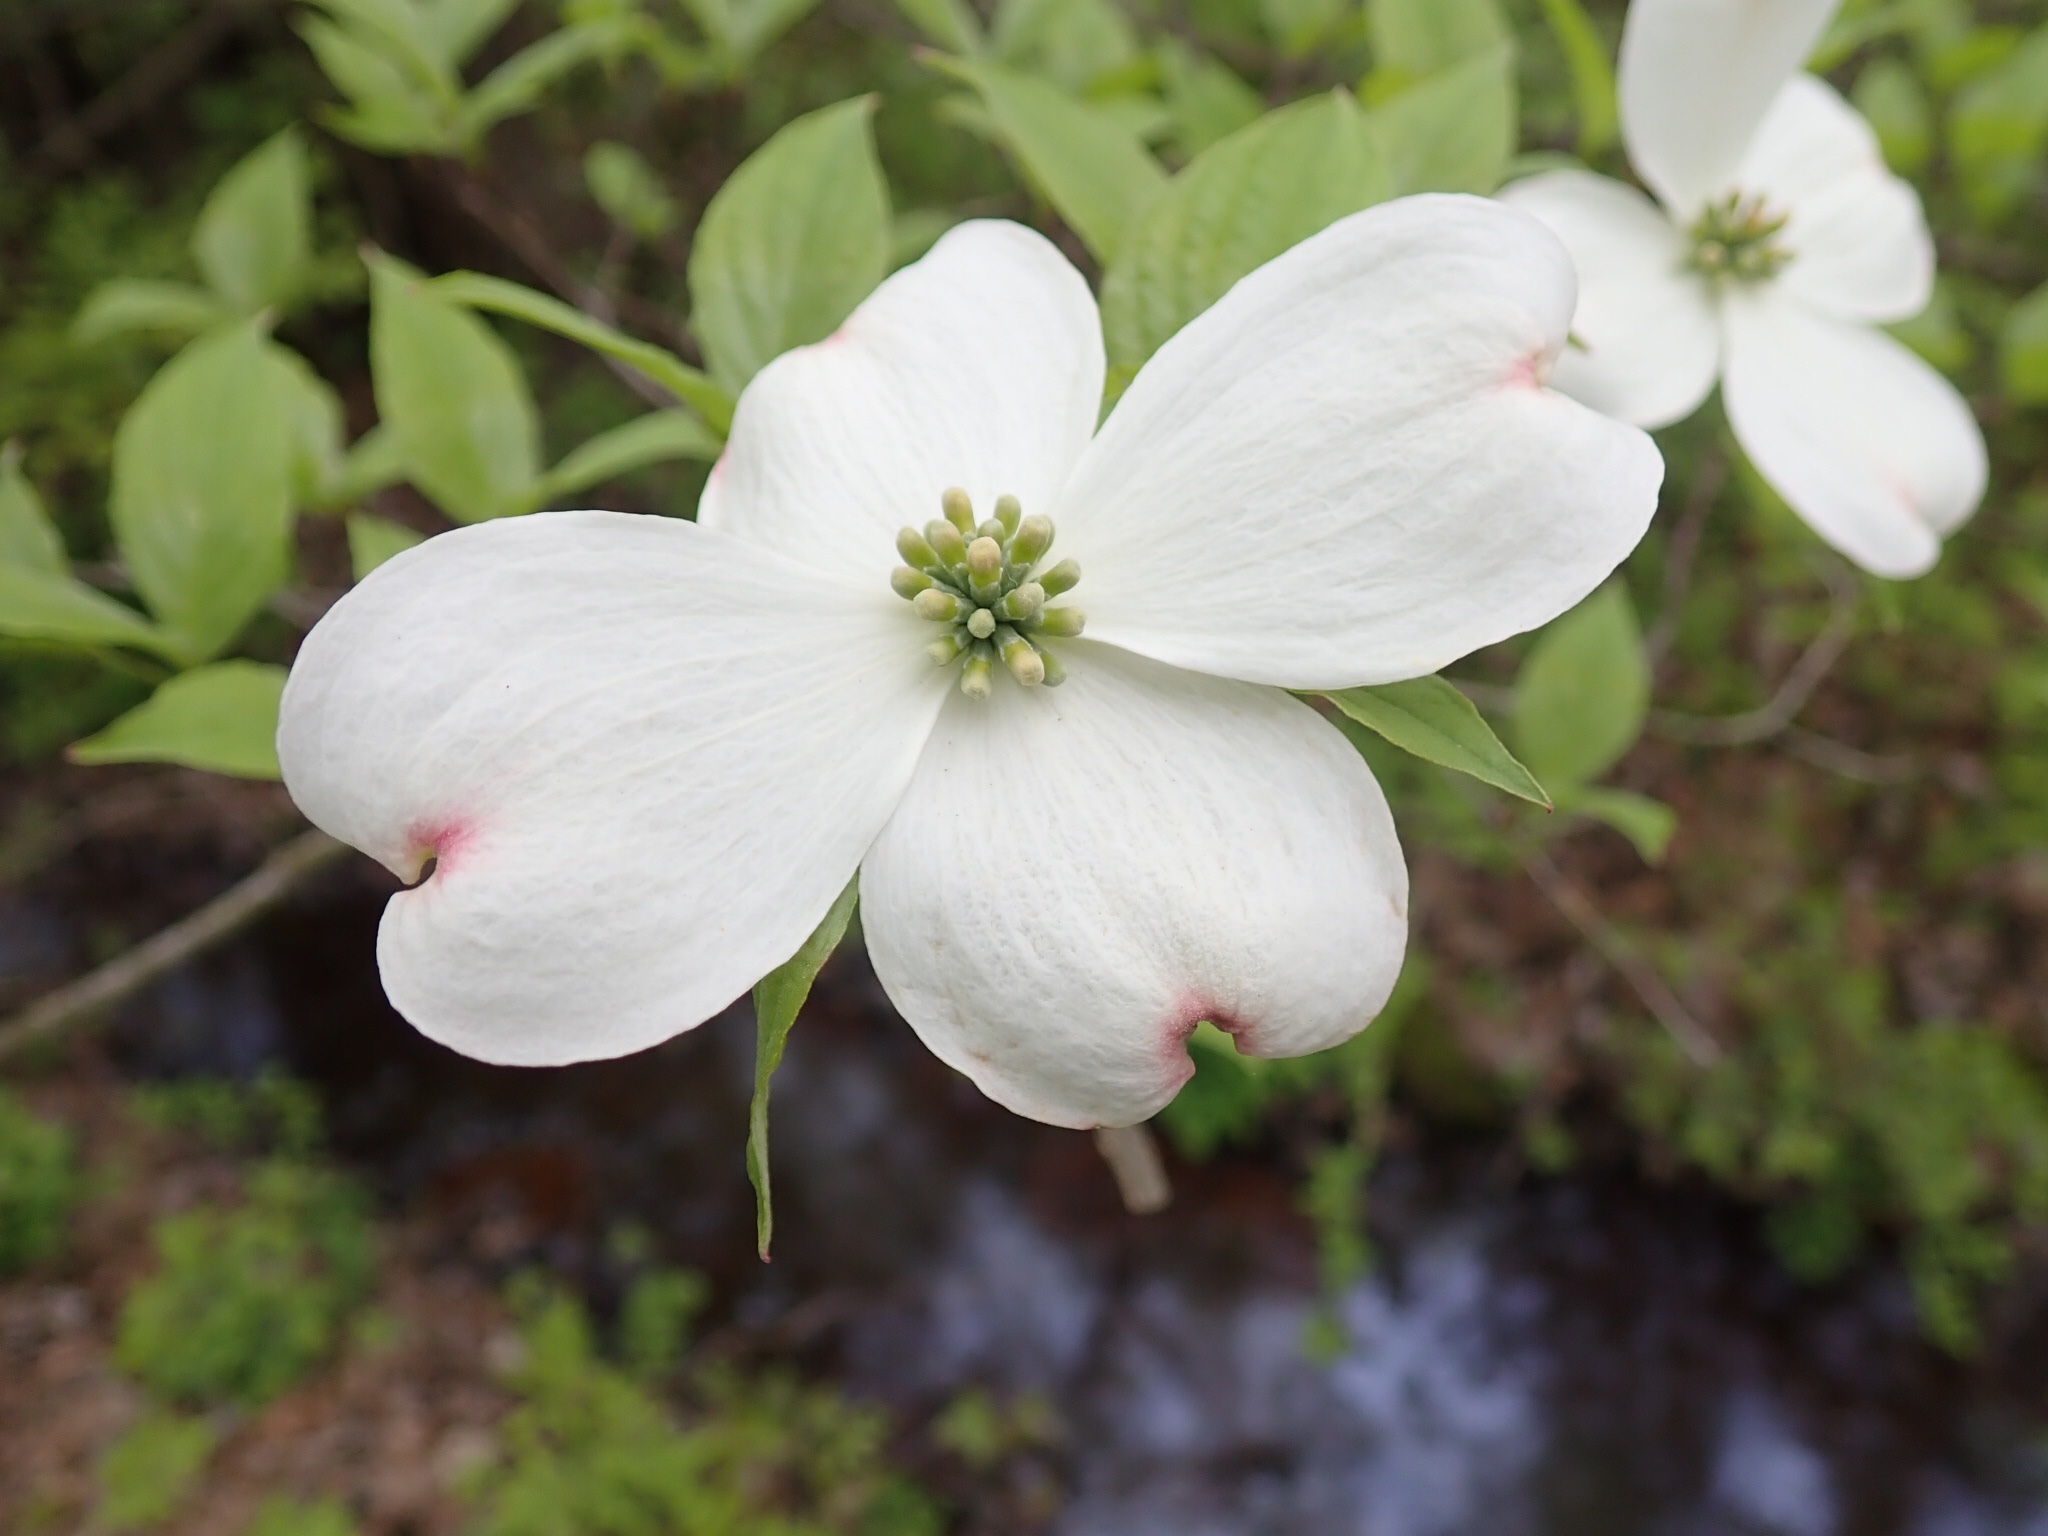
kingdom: Plantae
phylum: Tracheophyta
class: Magnoliopsida
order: Cornales
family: Cornaceae
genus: Cornus
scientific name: Cornus florida
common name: Flowering dogwood
